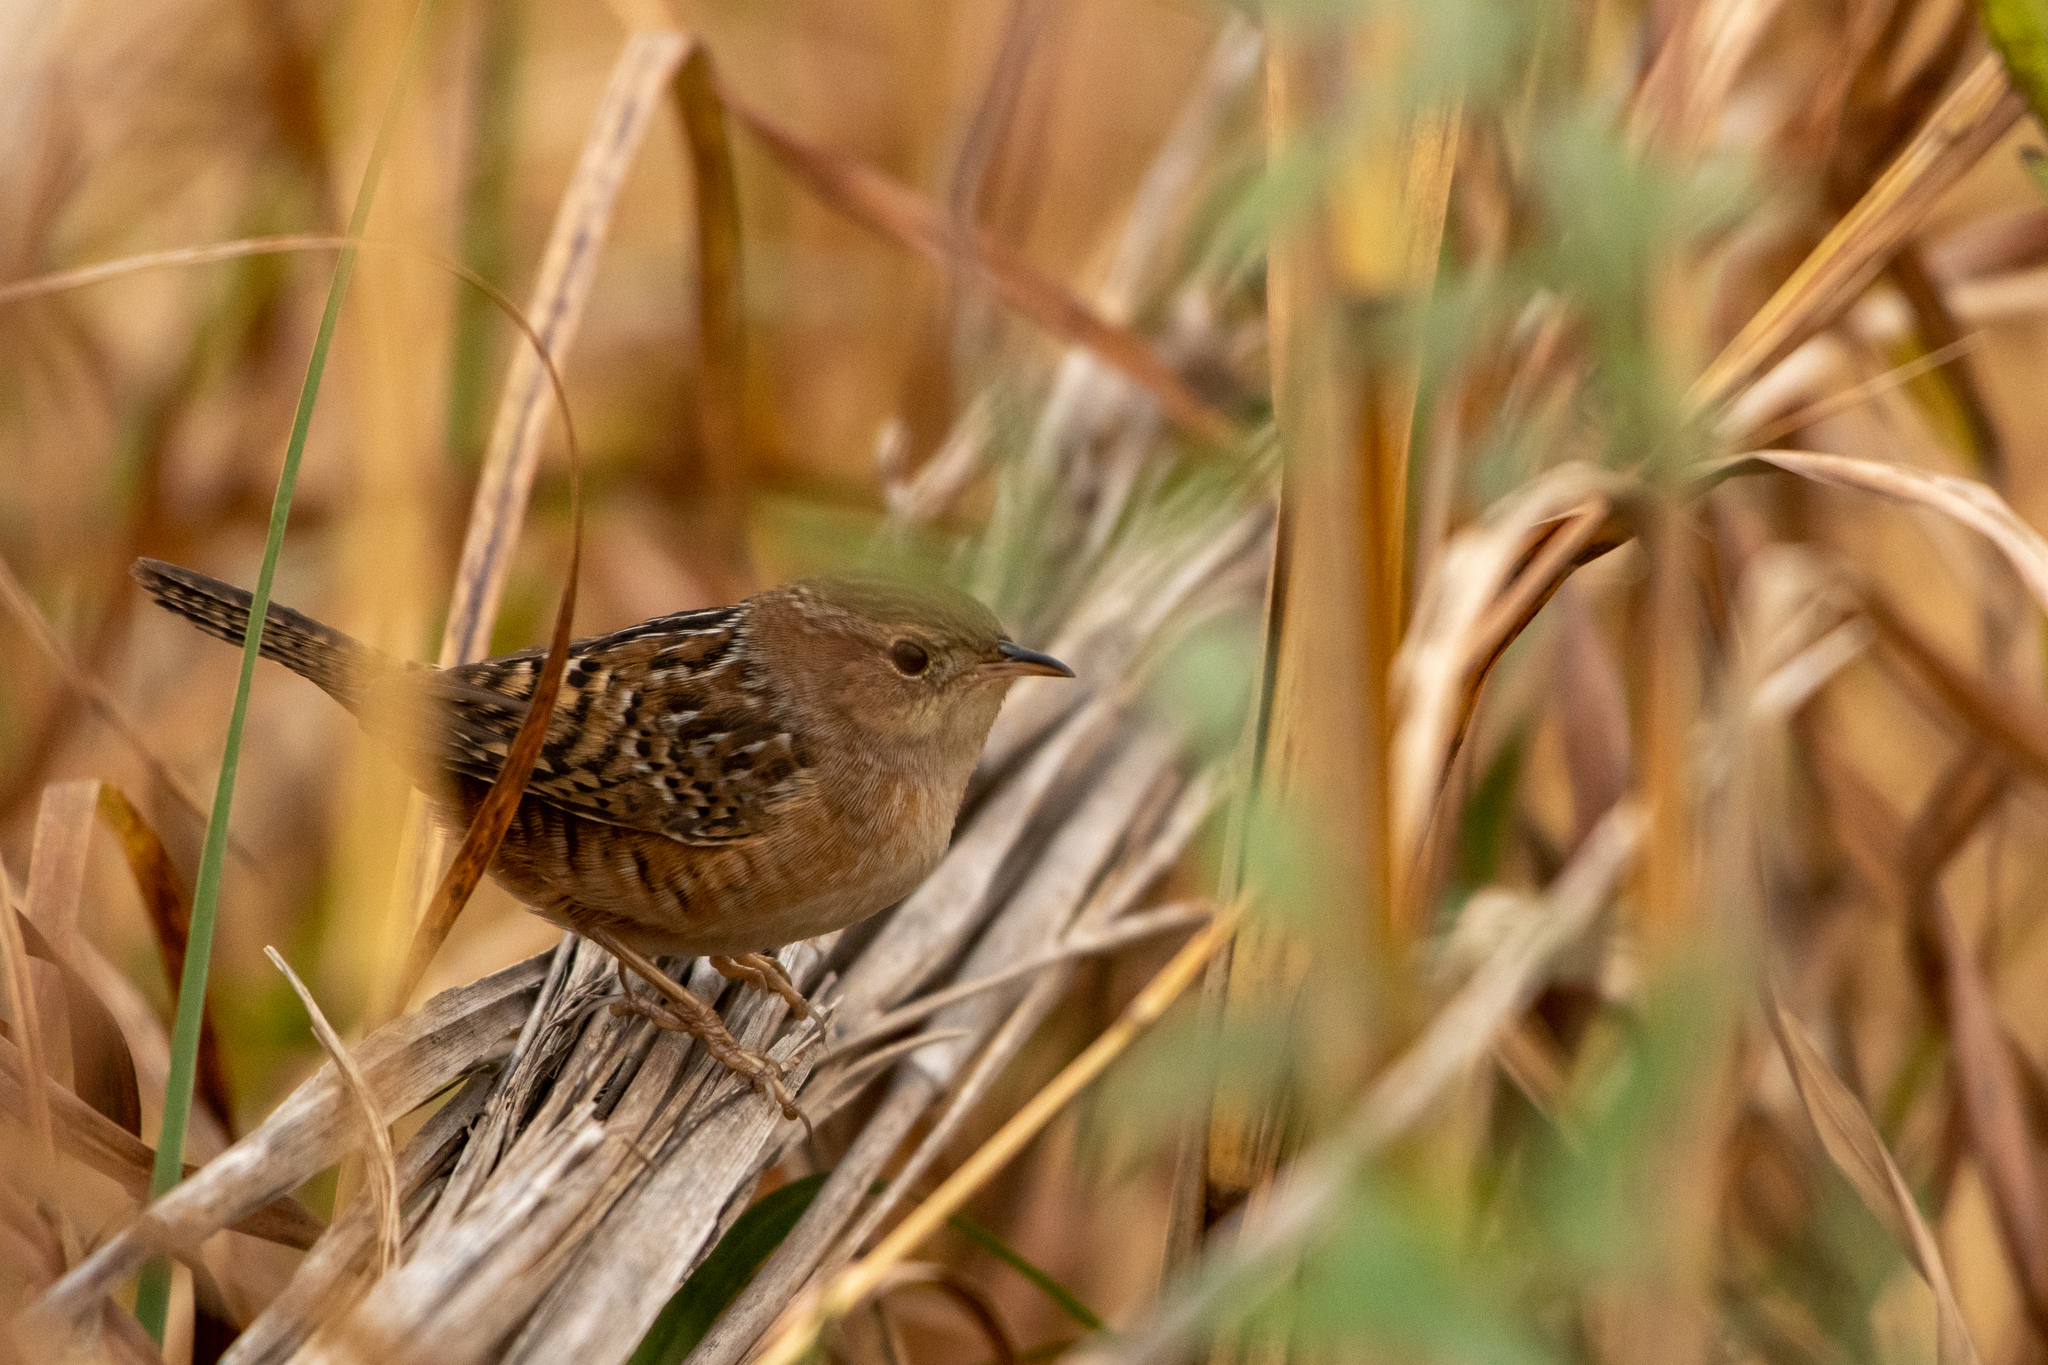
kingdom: Animalia
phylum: Chordata
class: Aves
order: Passeriformes
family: Troglodytidae
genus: Cistothorus
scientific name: Cistothorus platensis
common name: Sedge wren
